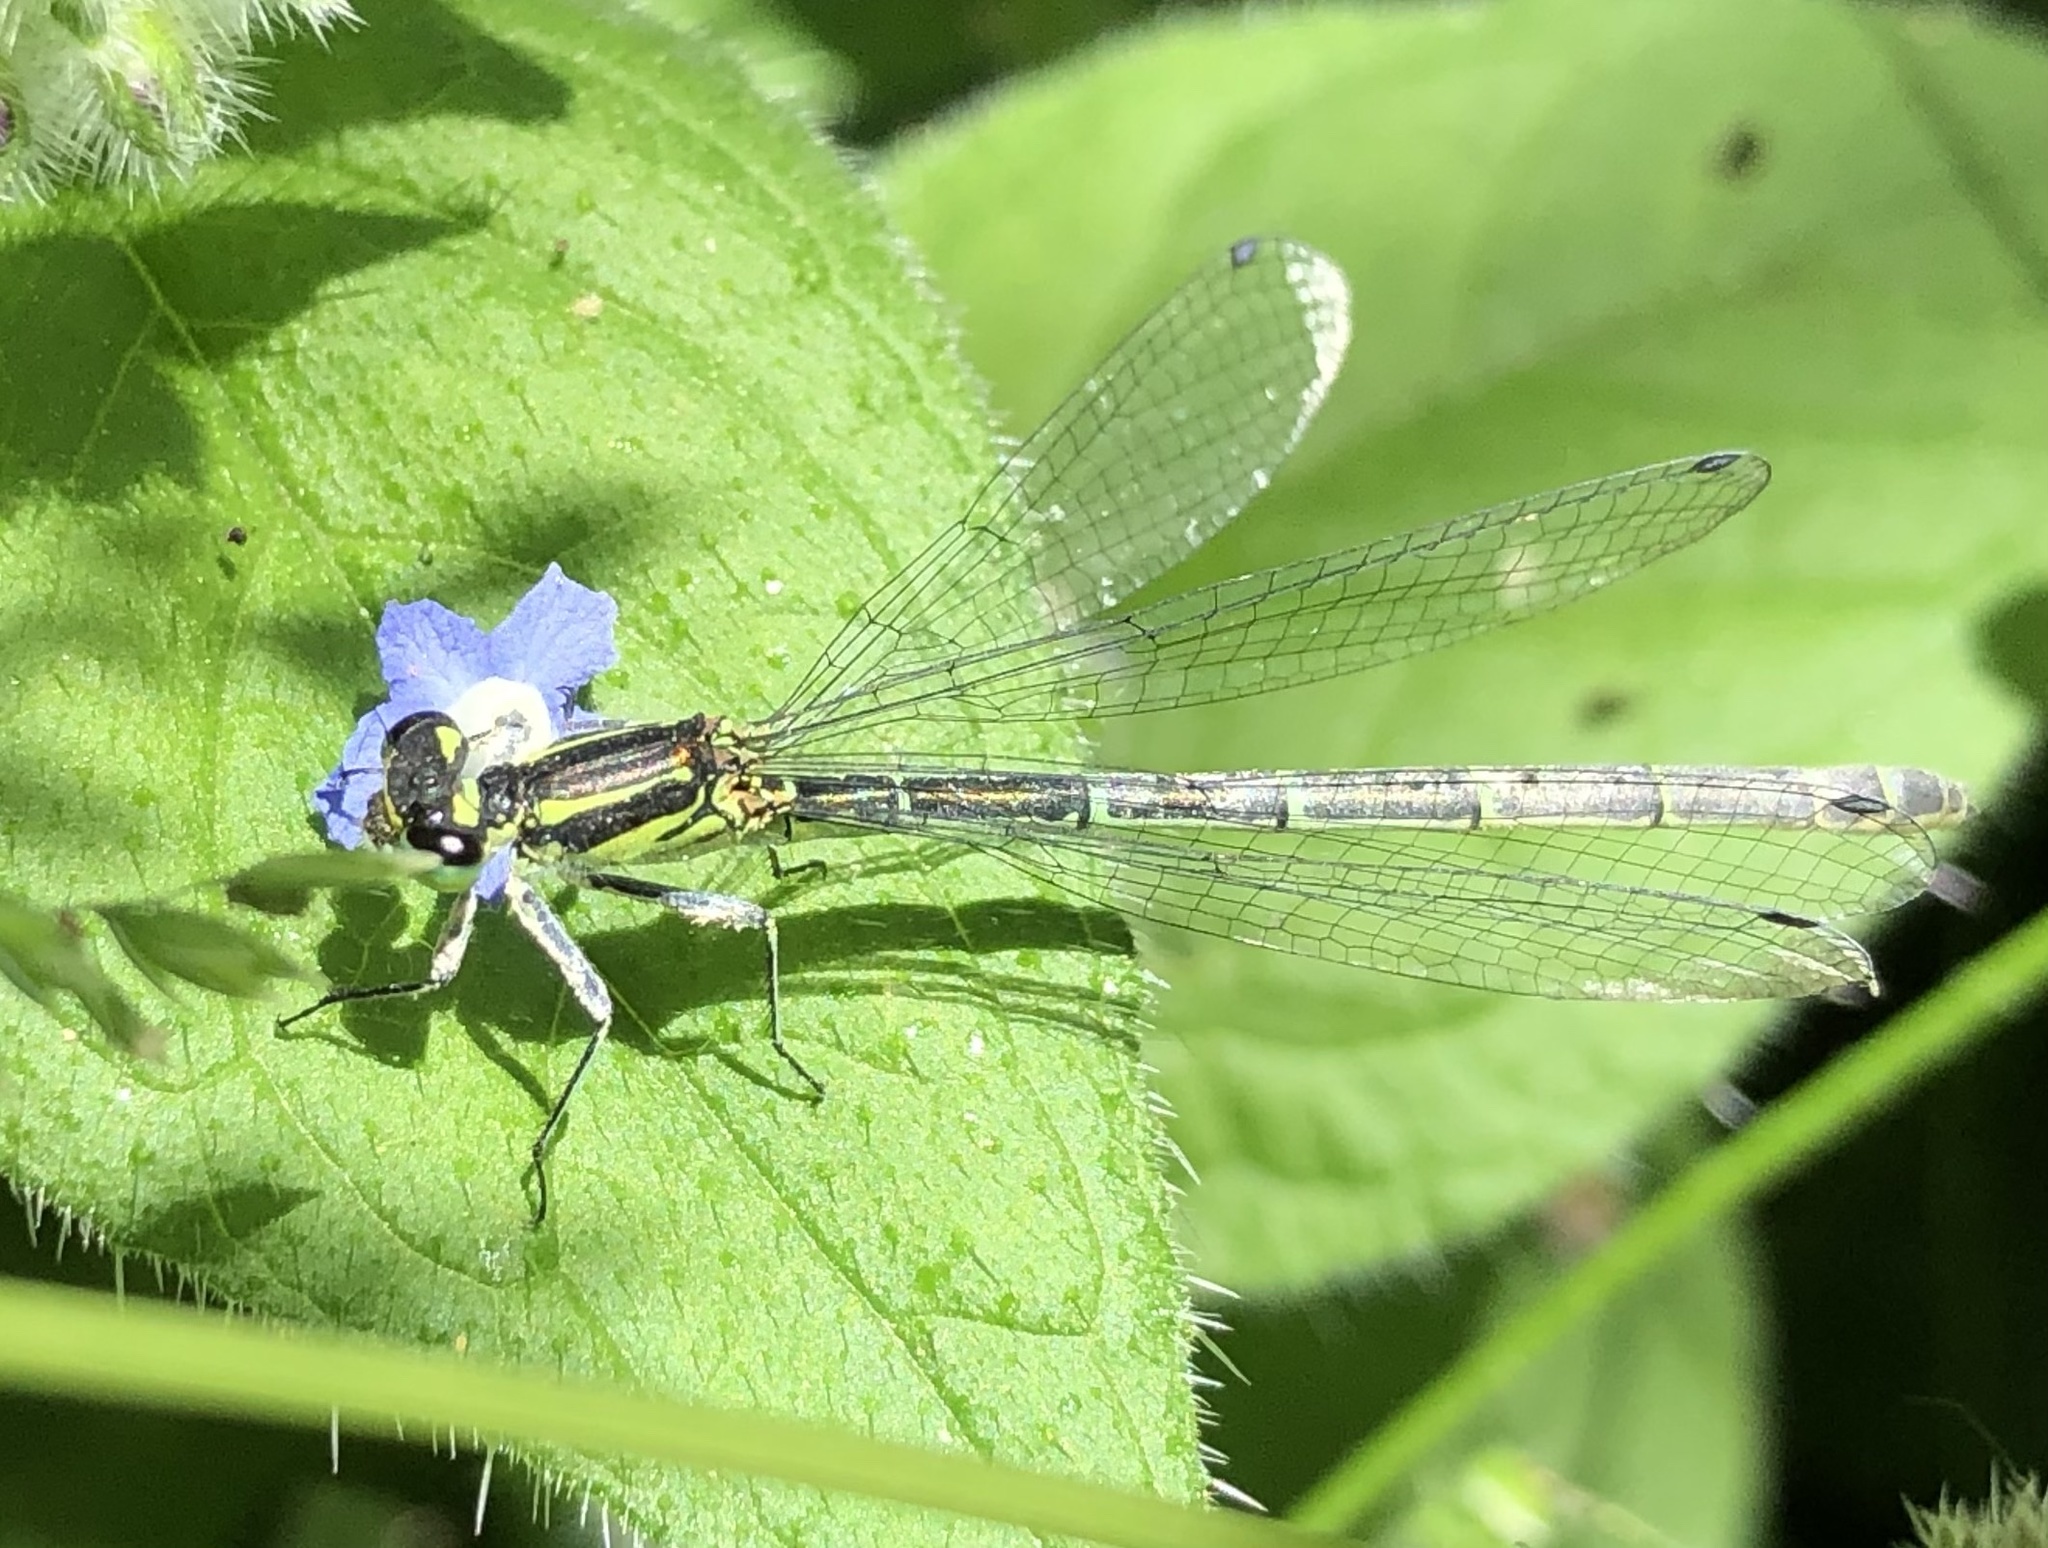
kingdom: Animalia
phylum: Arthropoda
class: Insecta
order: Odonata
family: Coenagrionidae
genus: Coenagrion
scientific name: Coenagrion
